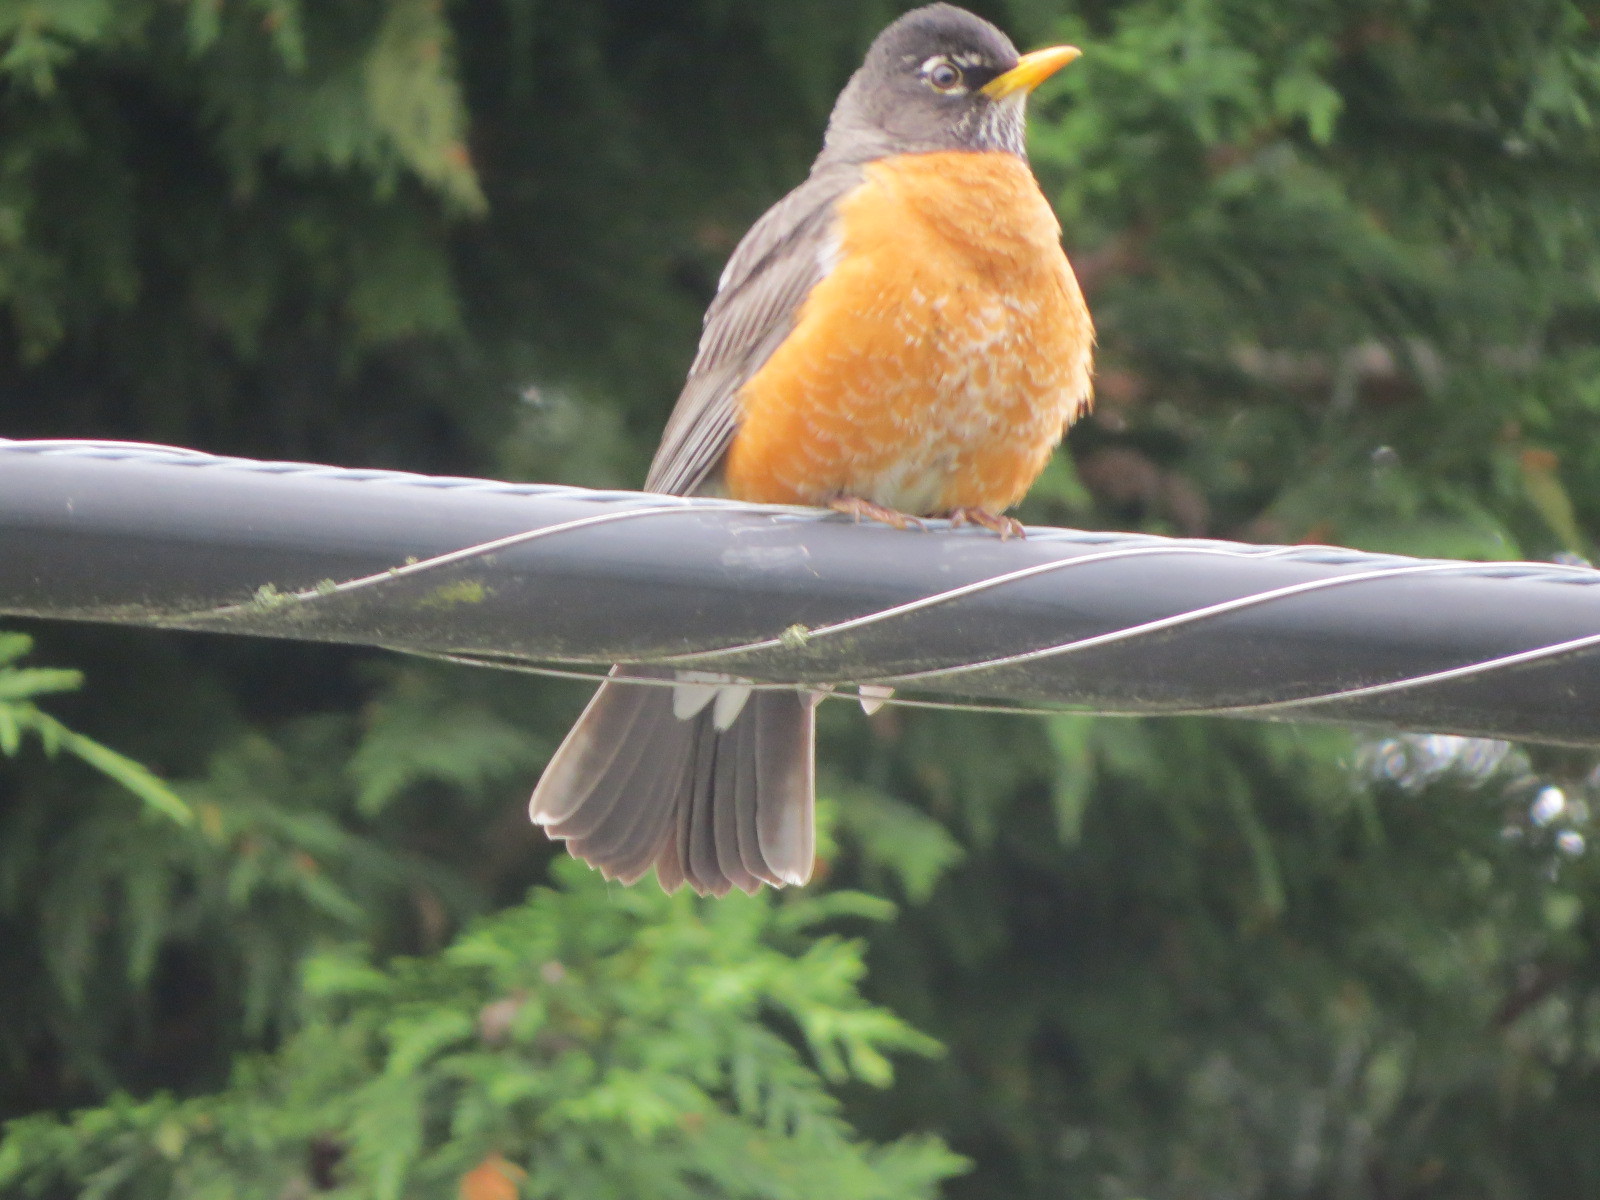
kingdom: Animalia
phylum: Chordata
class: Aves
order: Passeriformes
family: Turdidae
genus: Turdus
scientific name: Turdus migratorius
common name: American robin
